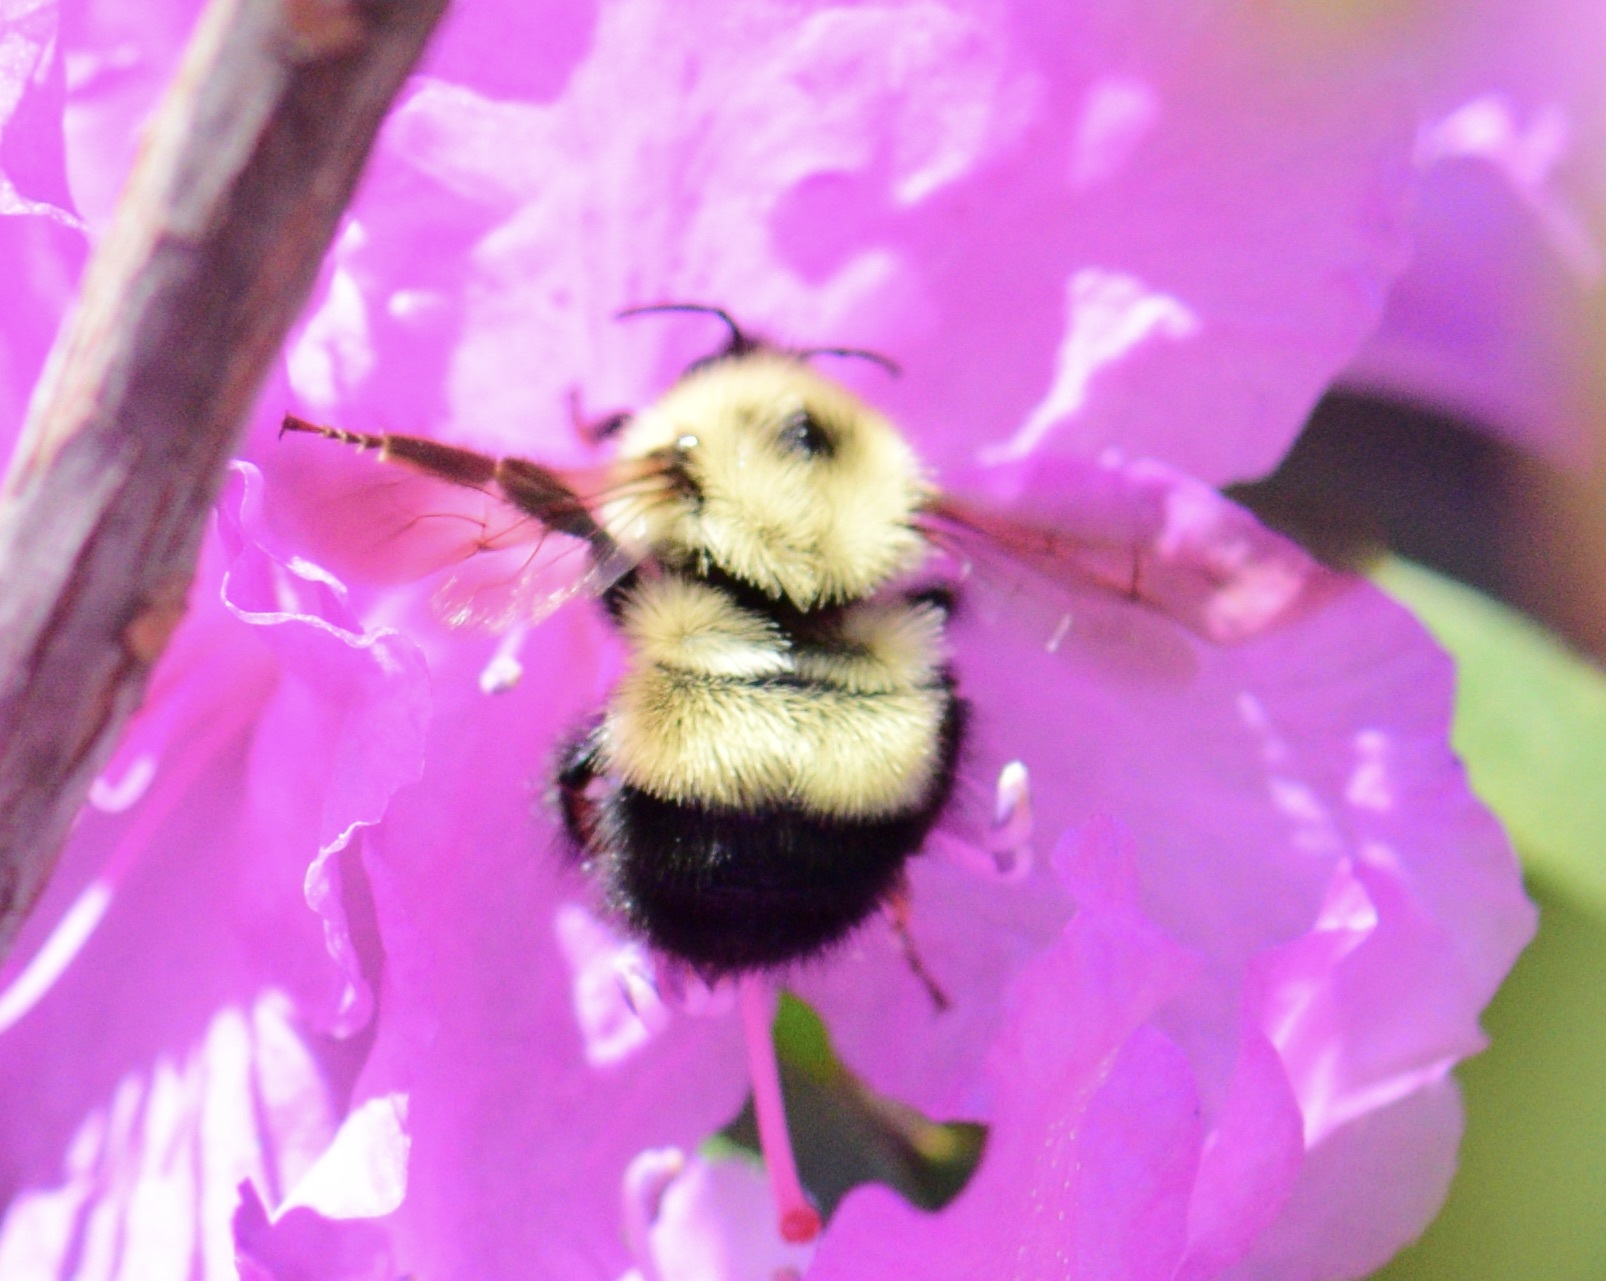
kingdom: Animalia
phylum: Arthropoda
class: Insecta
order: Hymenoptera
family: Apidae
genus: Pyrobombus
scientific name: Pyrobombus
